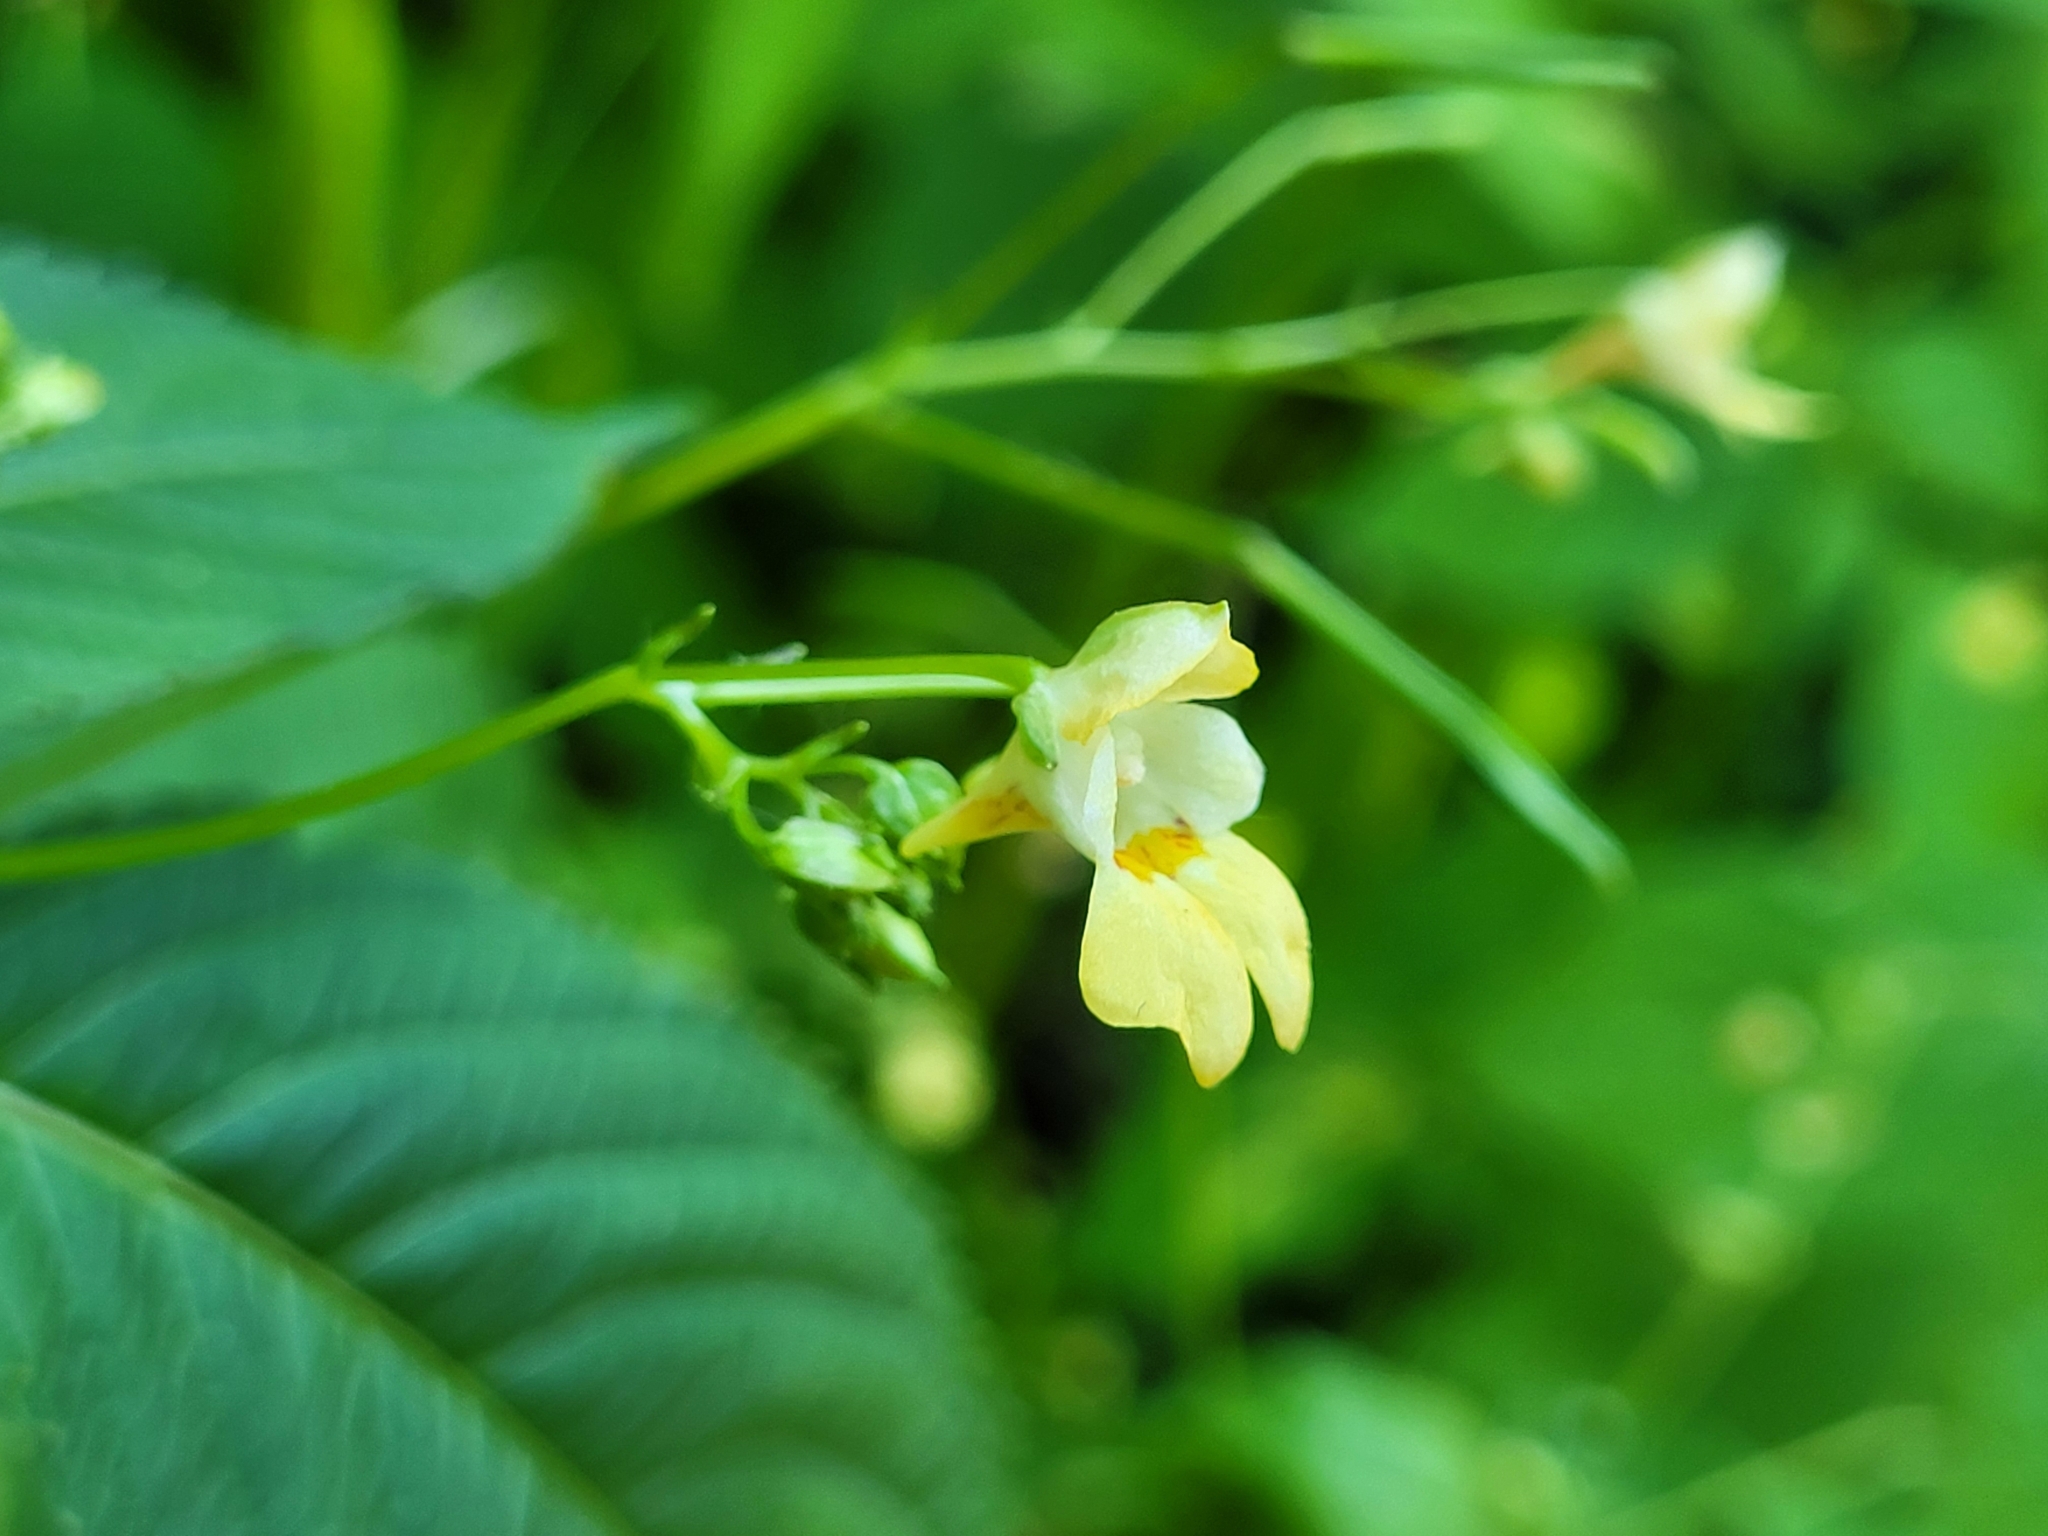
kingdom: Plantae
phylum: Tracheophyta
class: Magnoliopsida
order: Ericales
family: Balsaminaceae
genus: Impatiens
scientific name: Impatiens parviflora
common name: Small balsam
